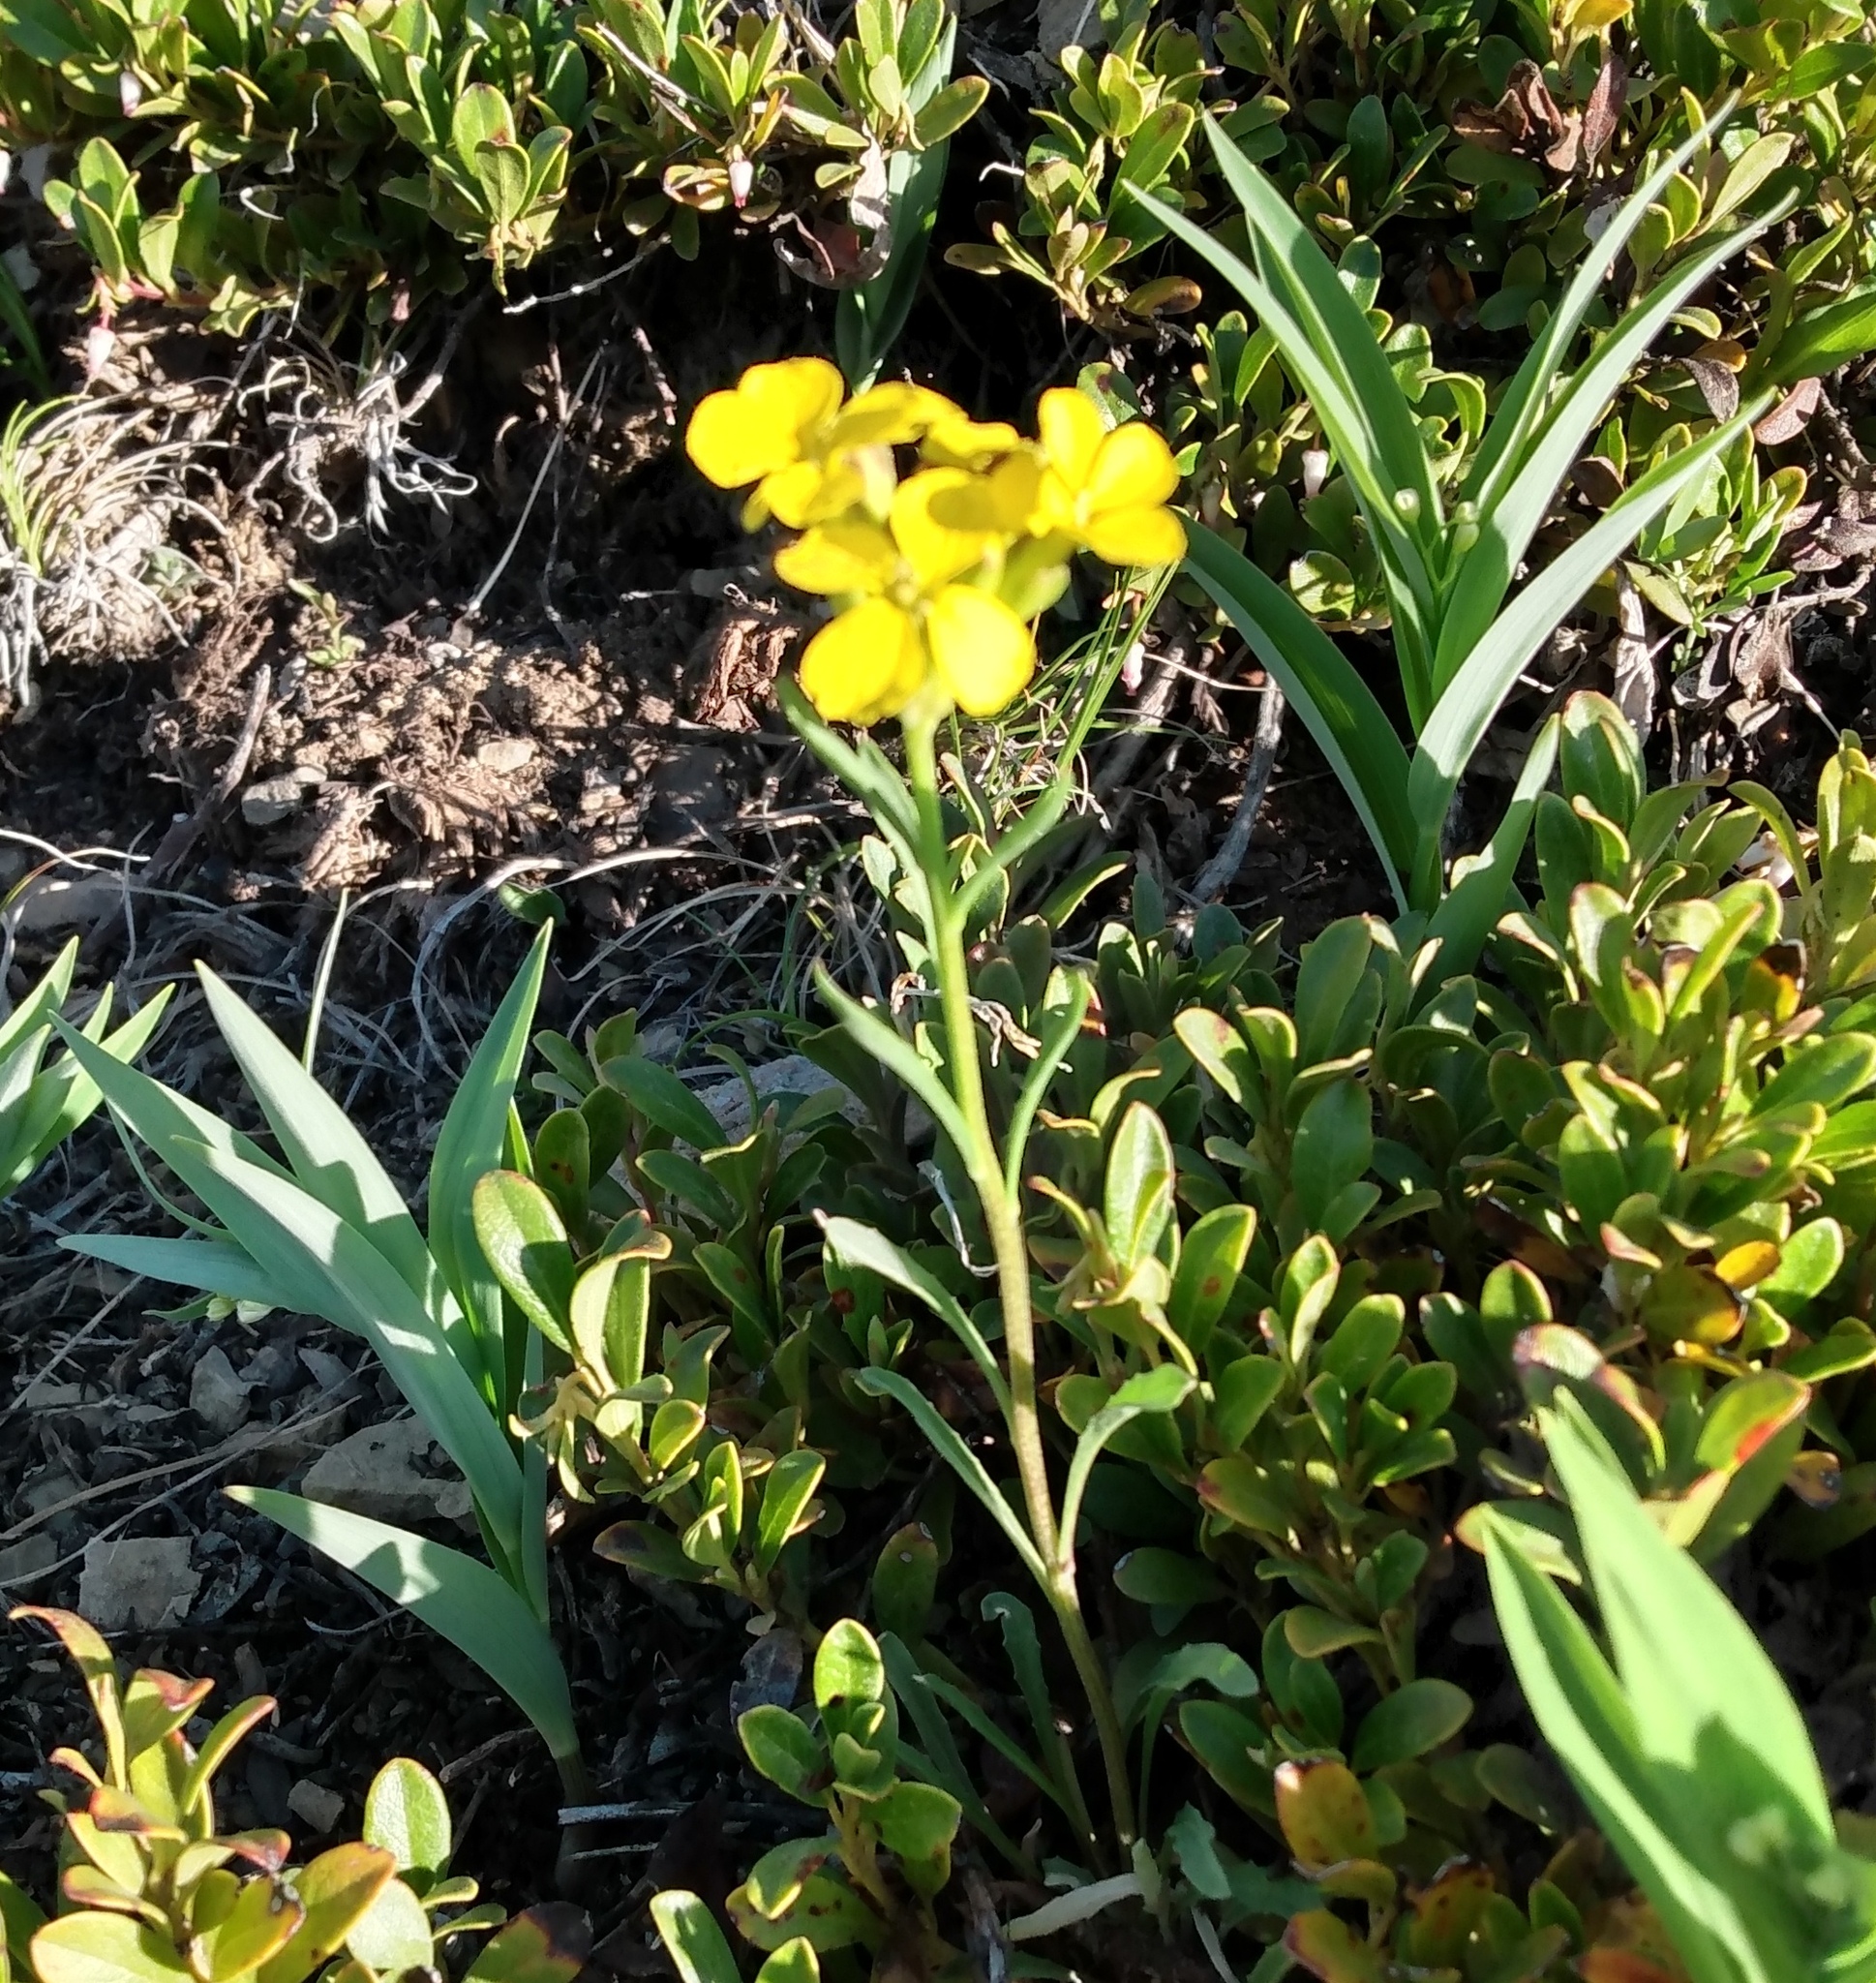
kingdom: Plantae
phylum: Tracheophyta
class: Magnoliopsida
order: Brassicales
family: Brassicaceae
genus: Erysimum
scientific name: Erysimum capitatum
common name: Western wallflower
